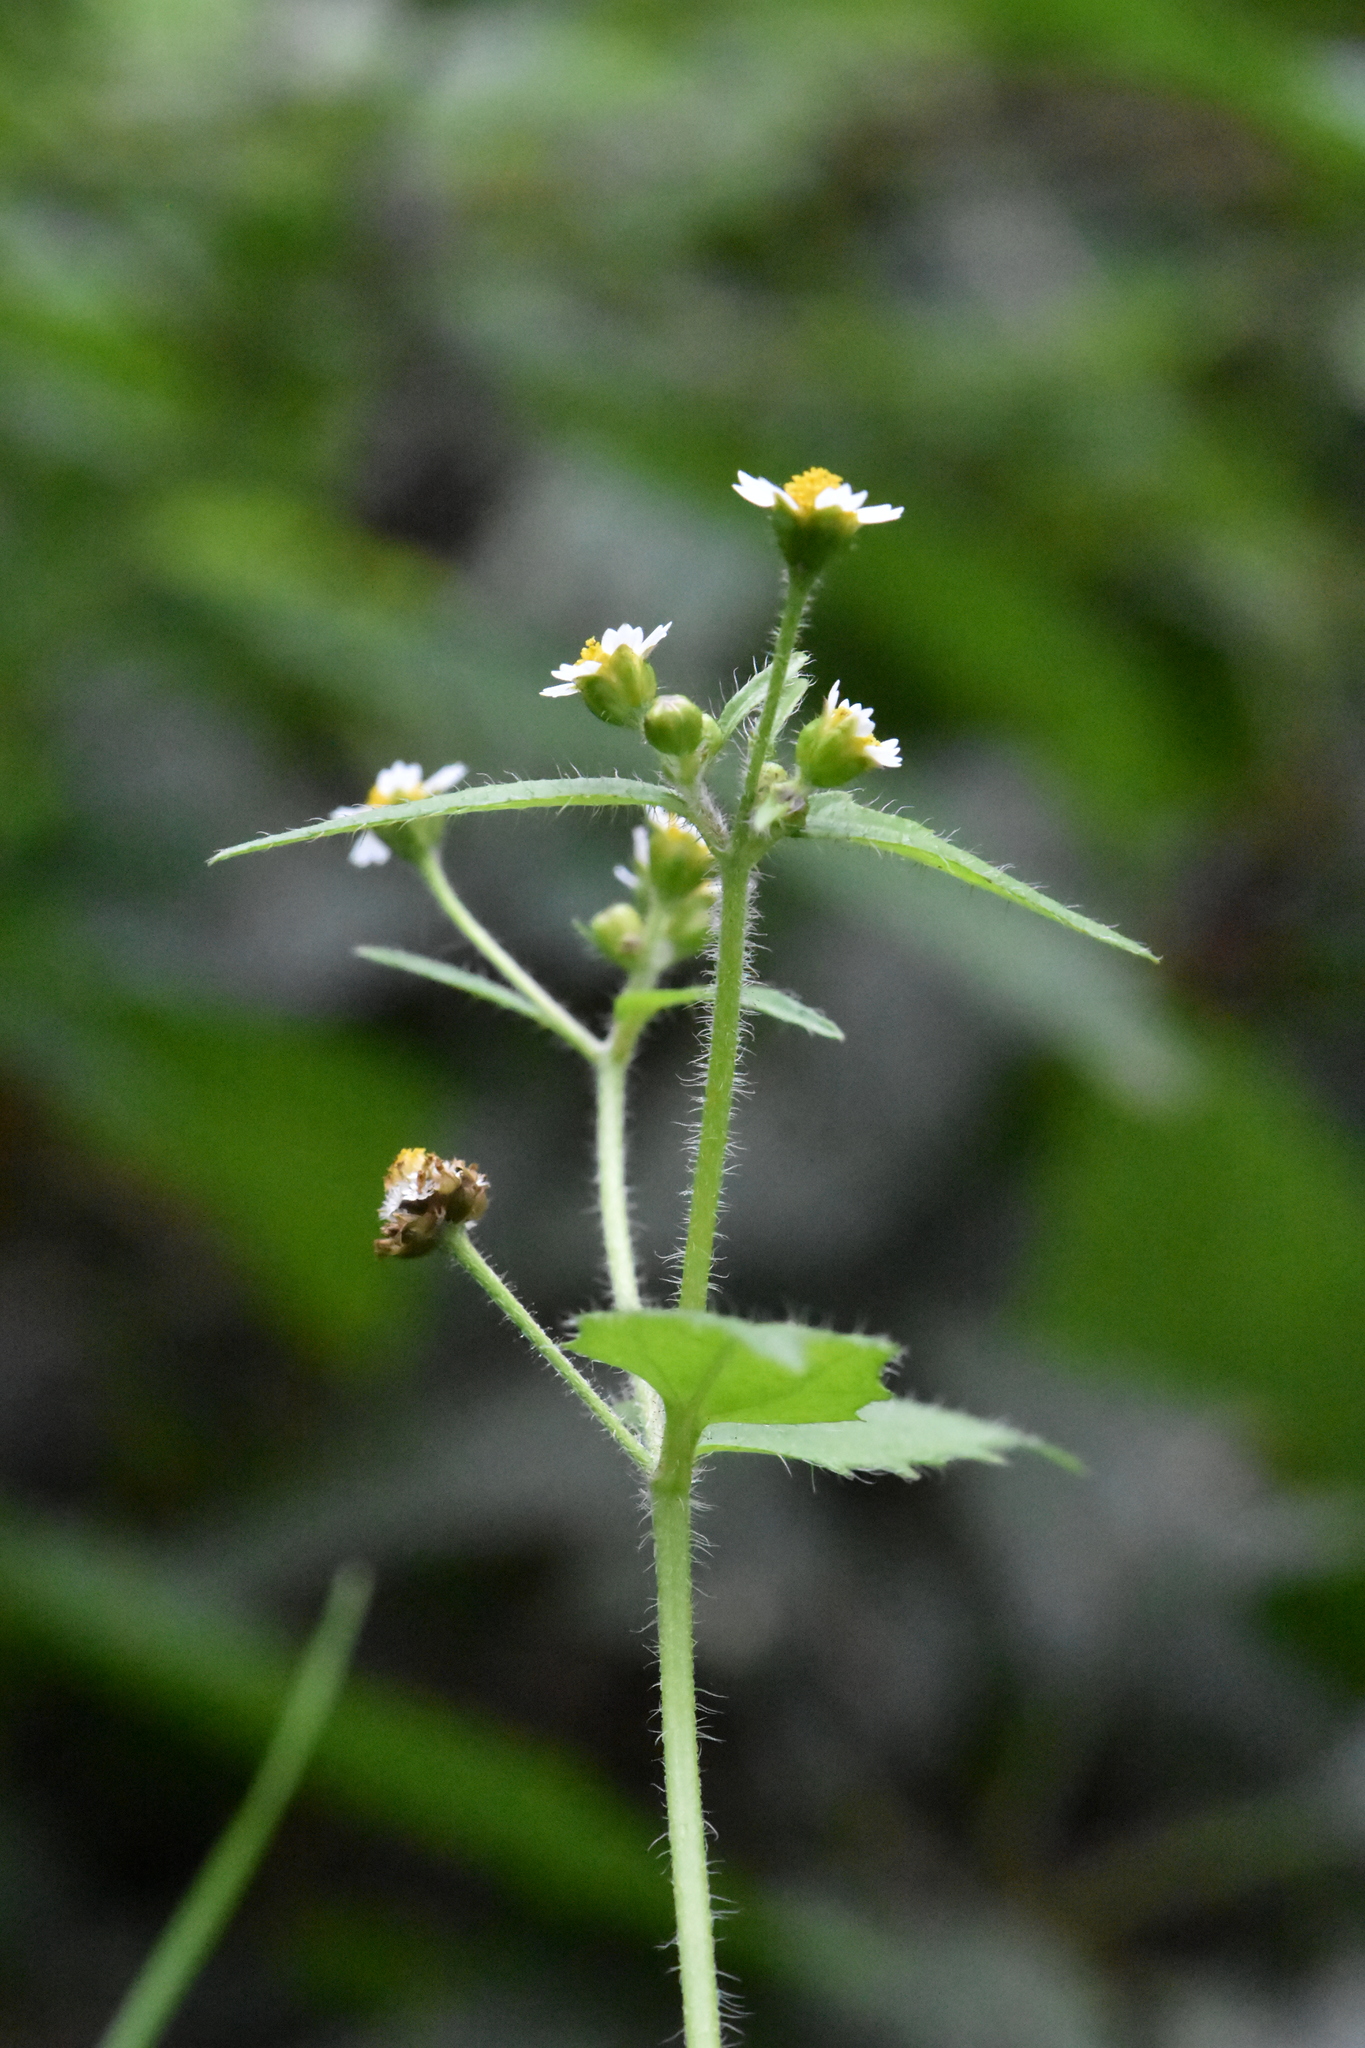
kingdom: Plantae
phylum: Tracheophyta
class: Magnoliopsida
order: Asterales
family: Asteraceae
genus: Galinsoga
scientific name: Galinsoga quadriradiata
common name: Shaggy soldier
